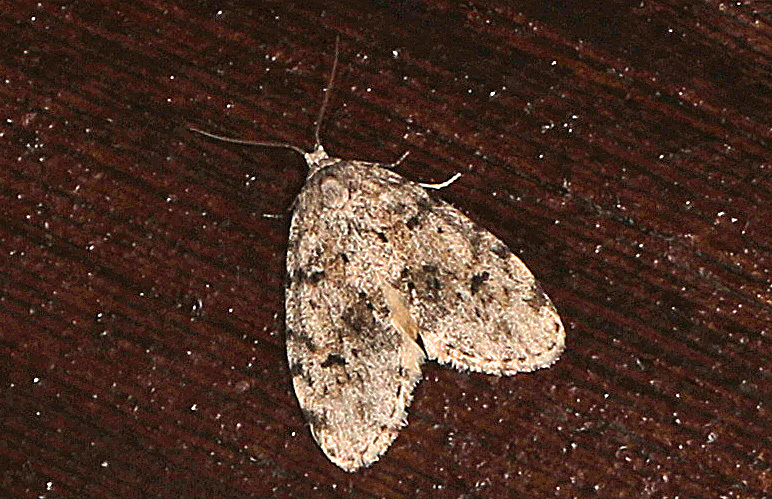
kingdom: Animalia
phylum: Arthropoda
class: Insecta
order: Lepidoptera
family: Erebidae
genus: Clemensia
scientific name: Clemensia albata
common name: Little white lichen moth
